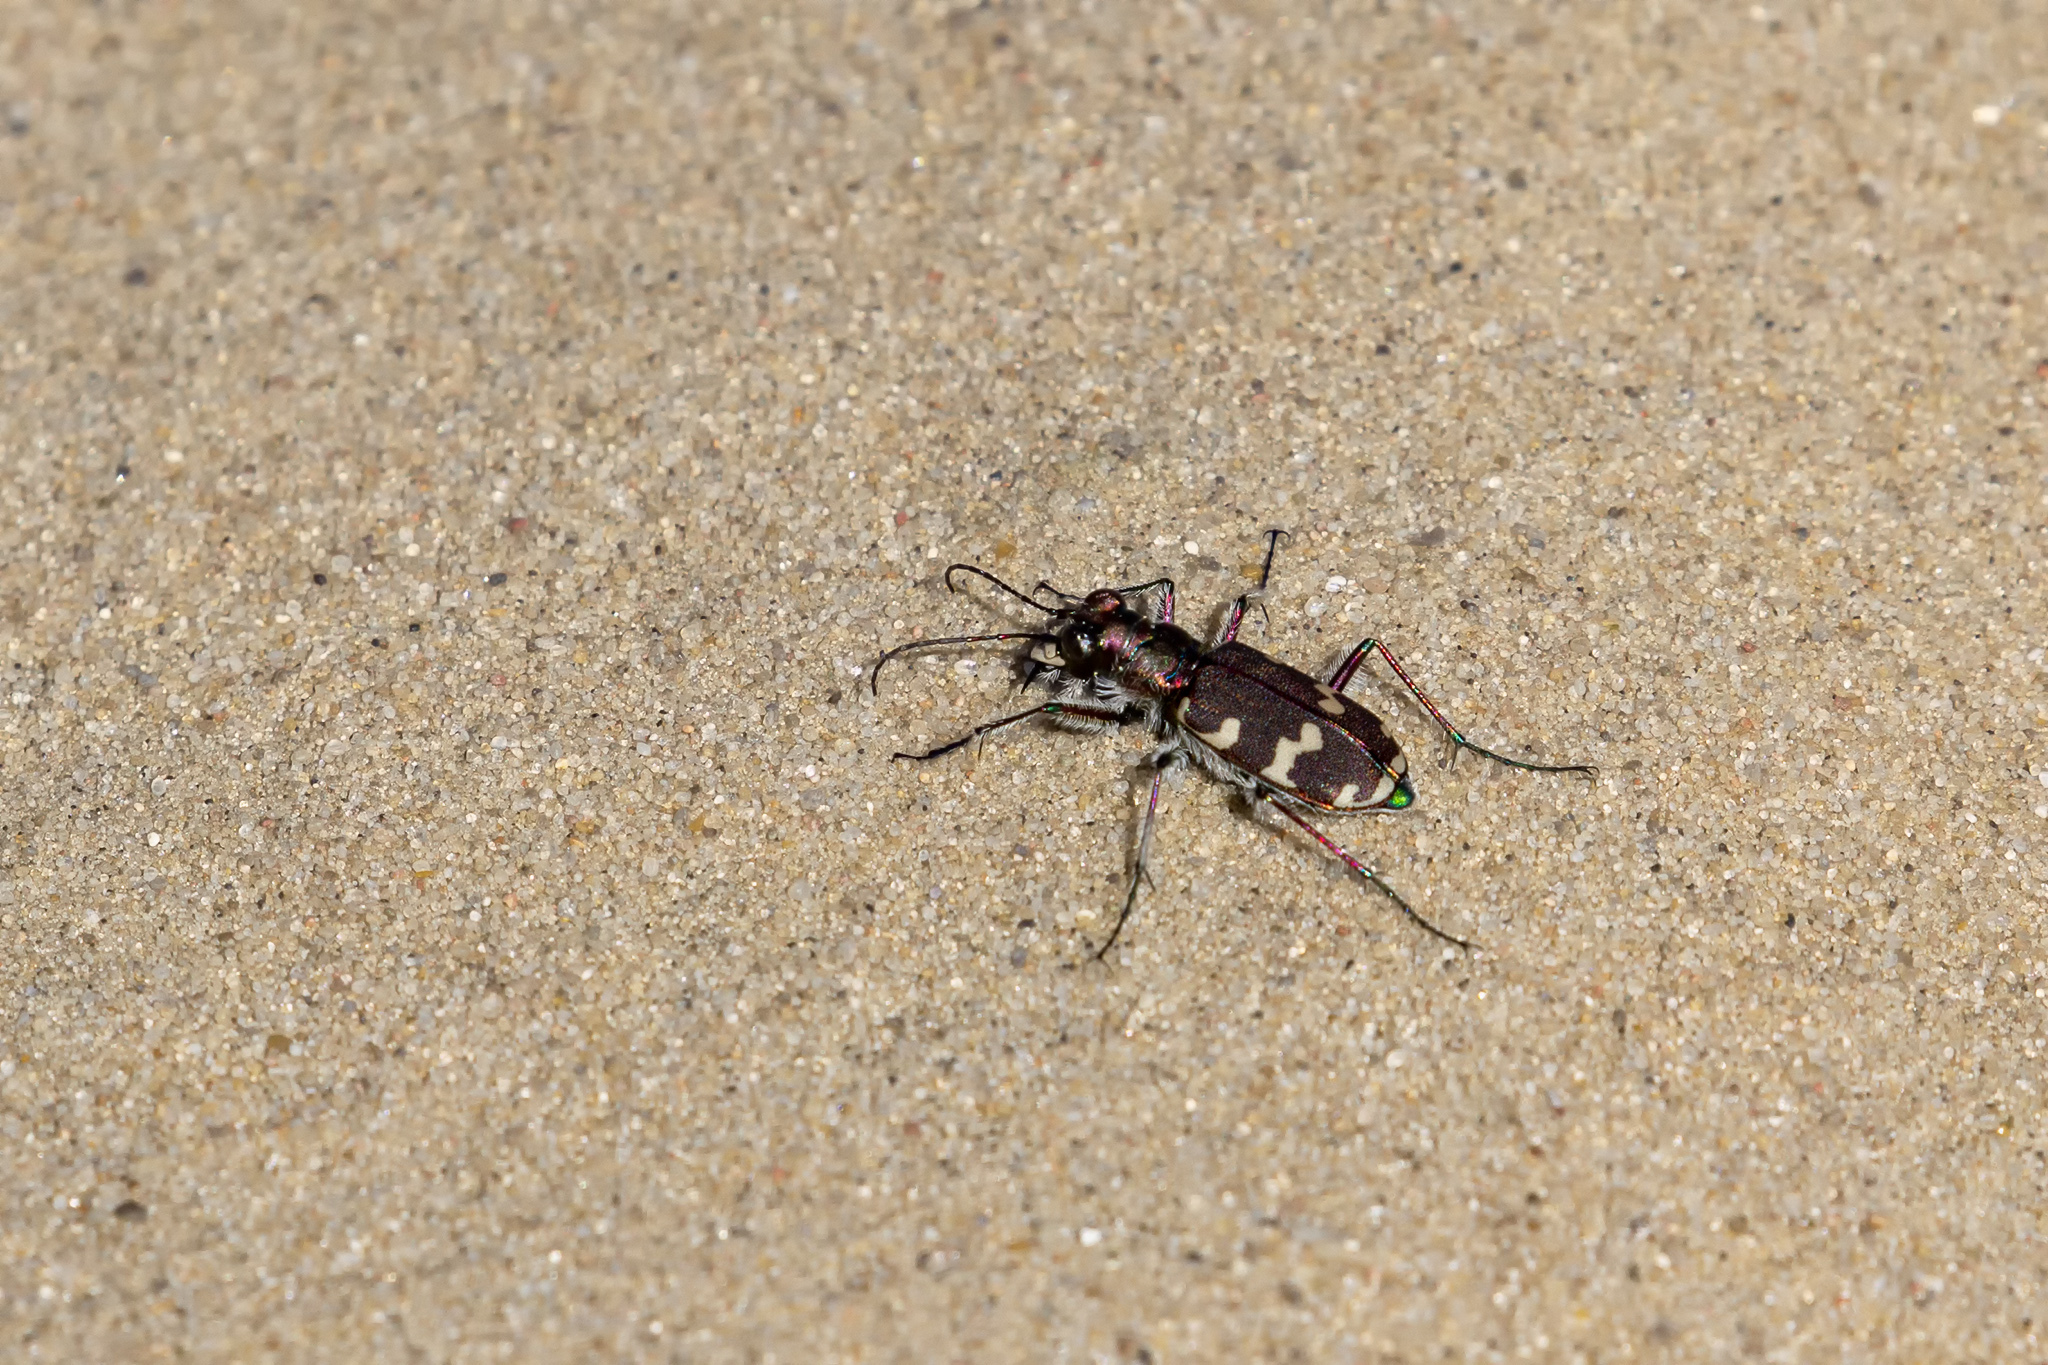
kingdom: Animalia
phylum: Arthropoda
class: Insecta
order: Coleoptera
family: Carabidae
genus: Cicindela
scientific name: Cicindela hybrida
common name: Northern dune tiger beetle
